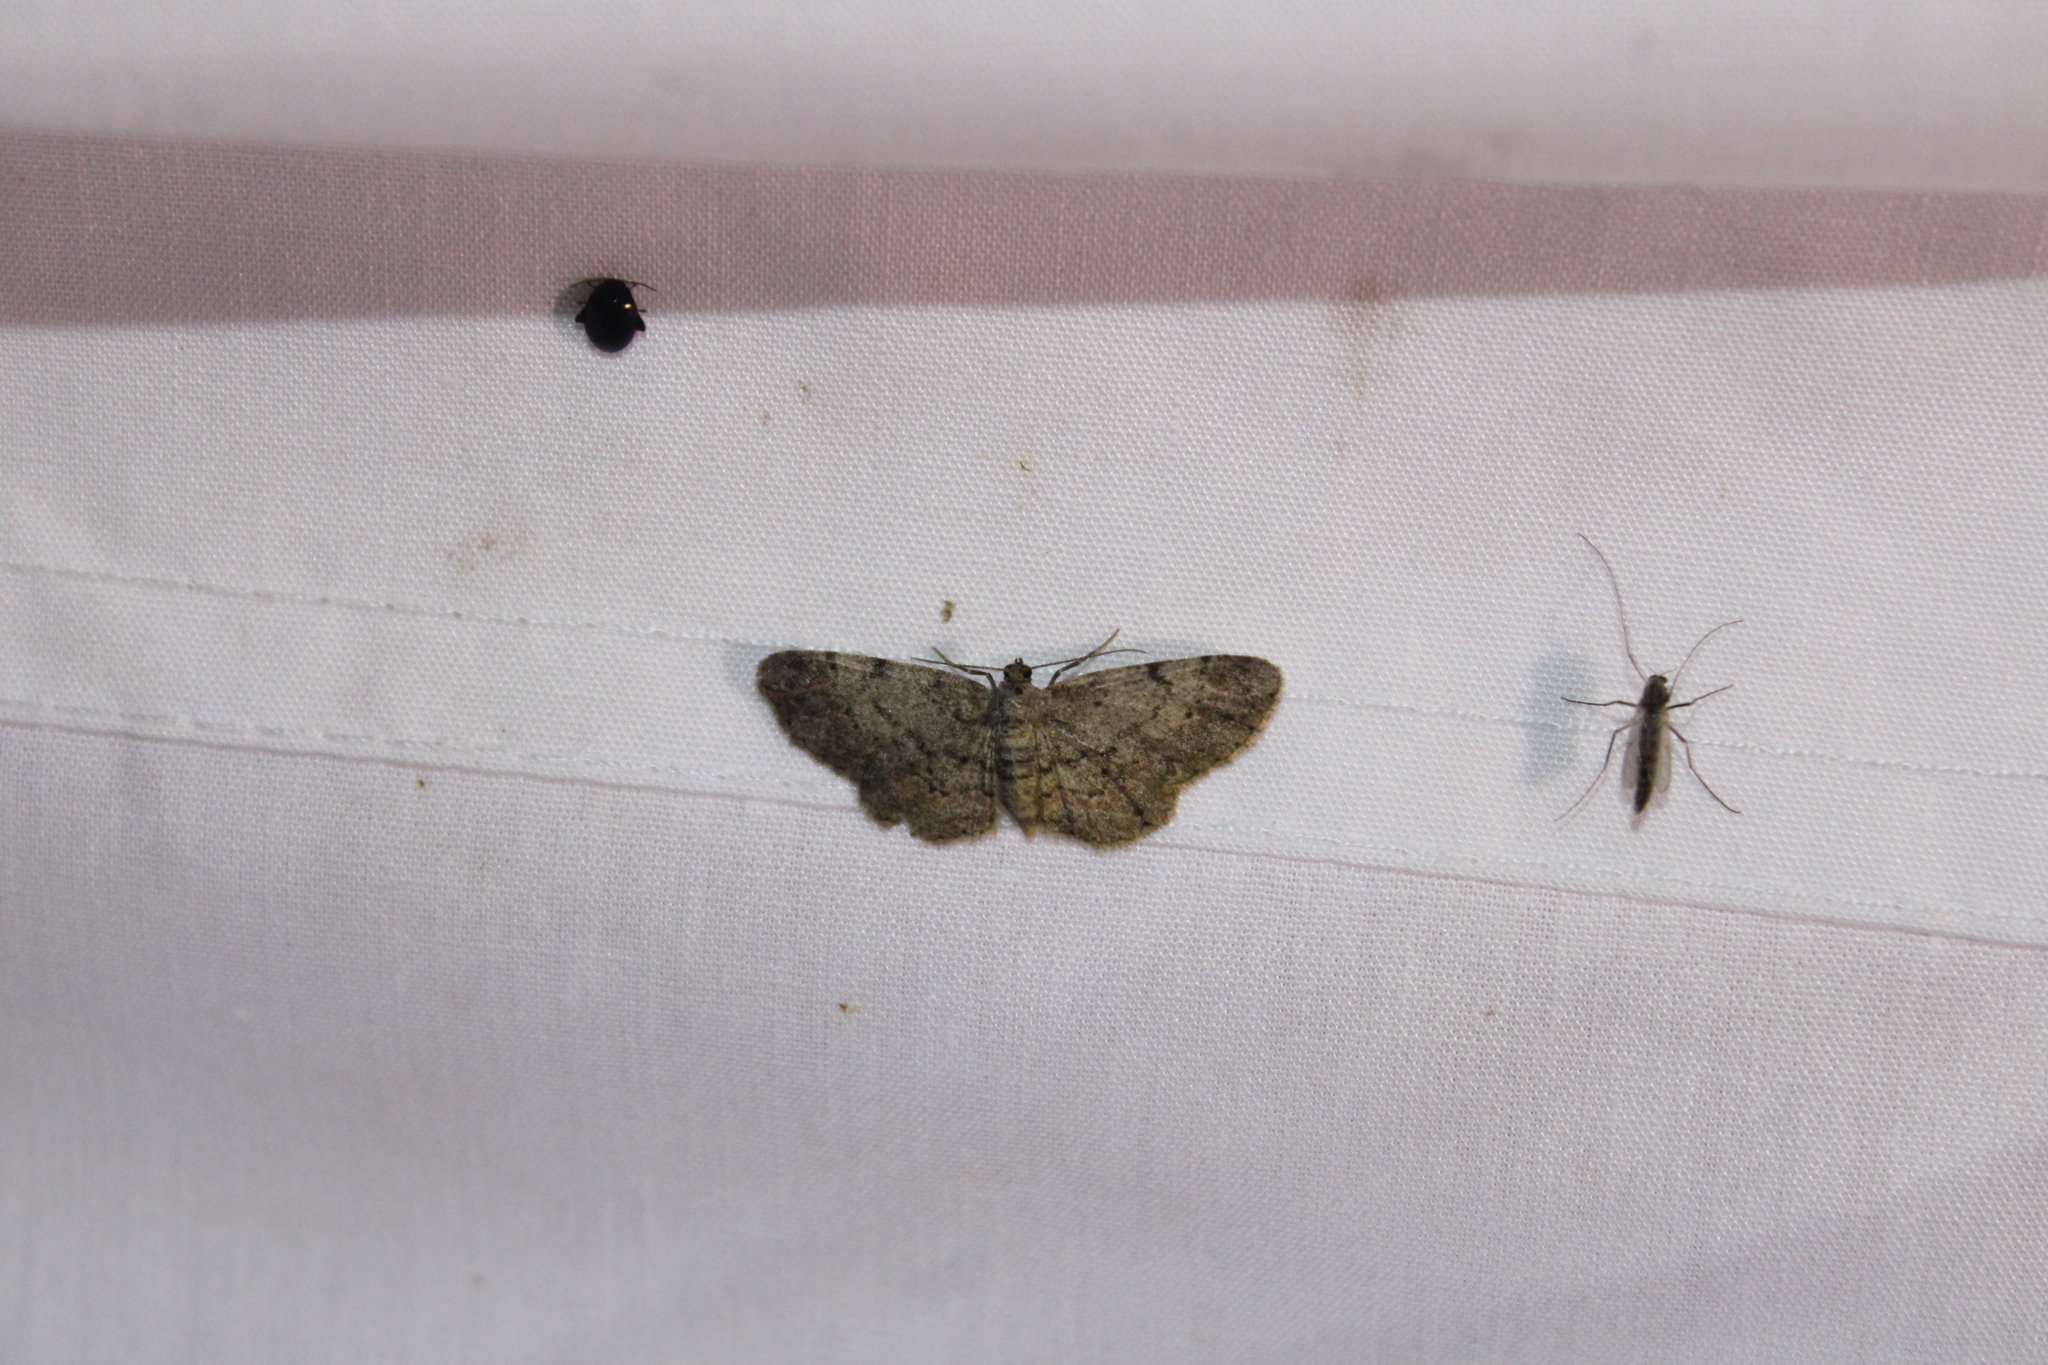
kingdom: Animalia
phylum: Arthropoda
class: Insecta
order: Lepidoptera
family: Geometridae
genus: Glenoides
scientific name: Glenoides texanaria
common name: Texas gray
